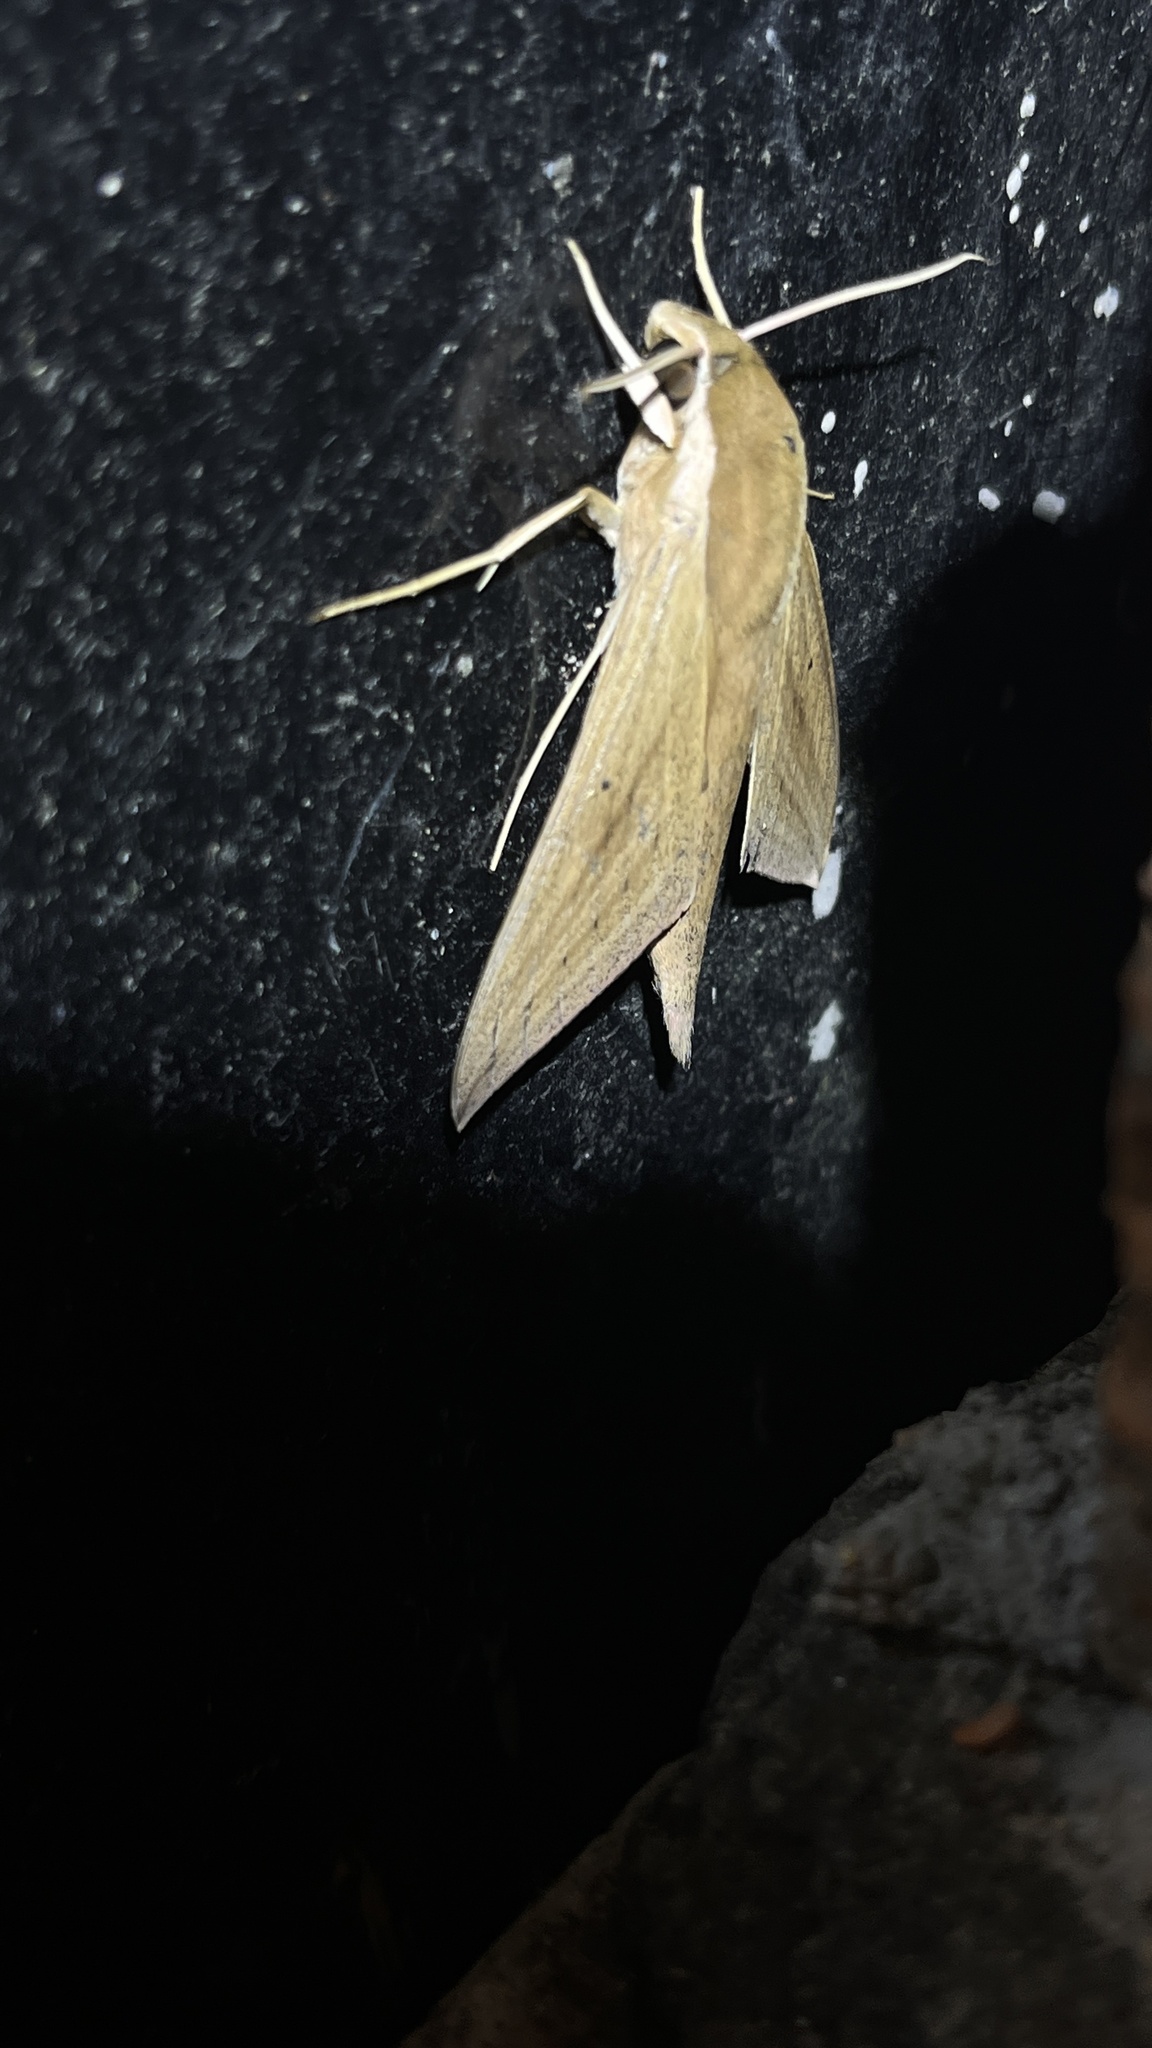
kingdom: Animalia
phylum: Arthropoda
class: Insecta
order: Lepidoptera
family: Sphingidae
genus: Theretra
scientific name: Theretra rhesus
